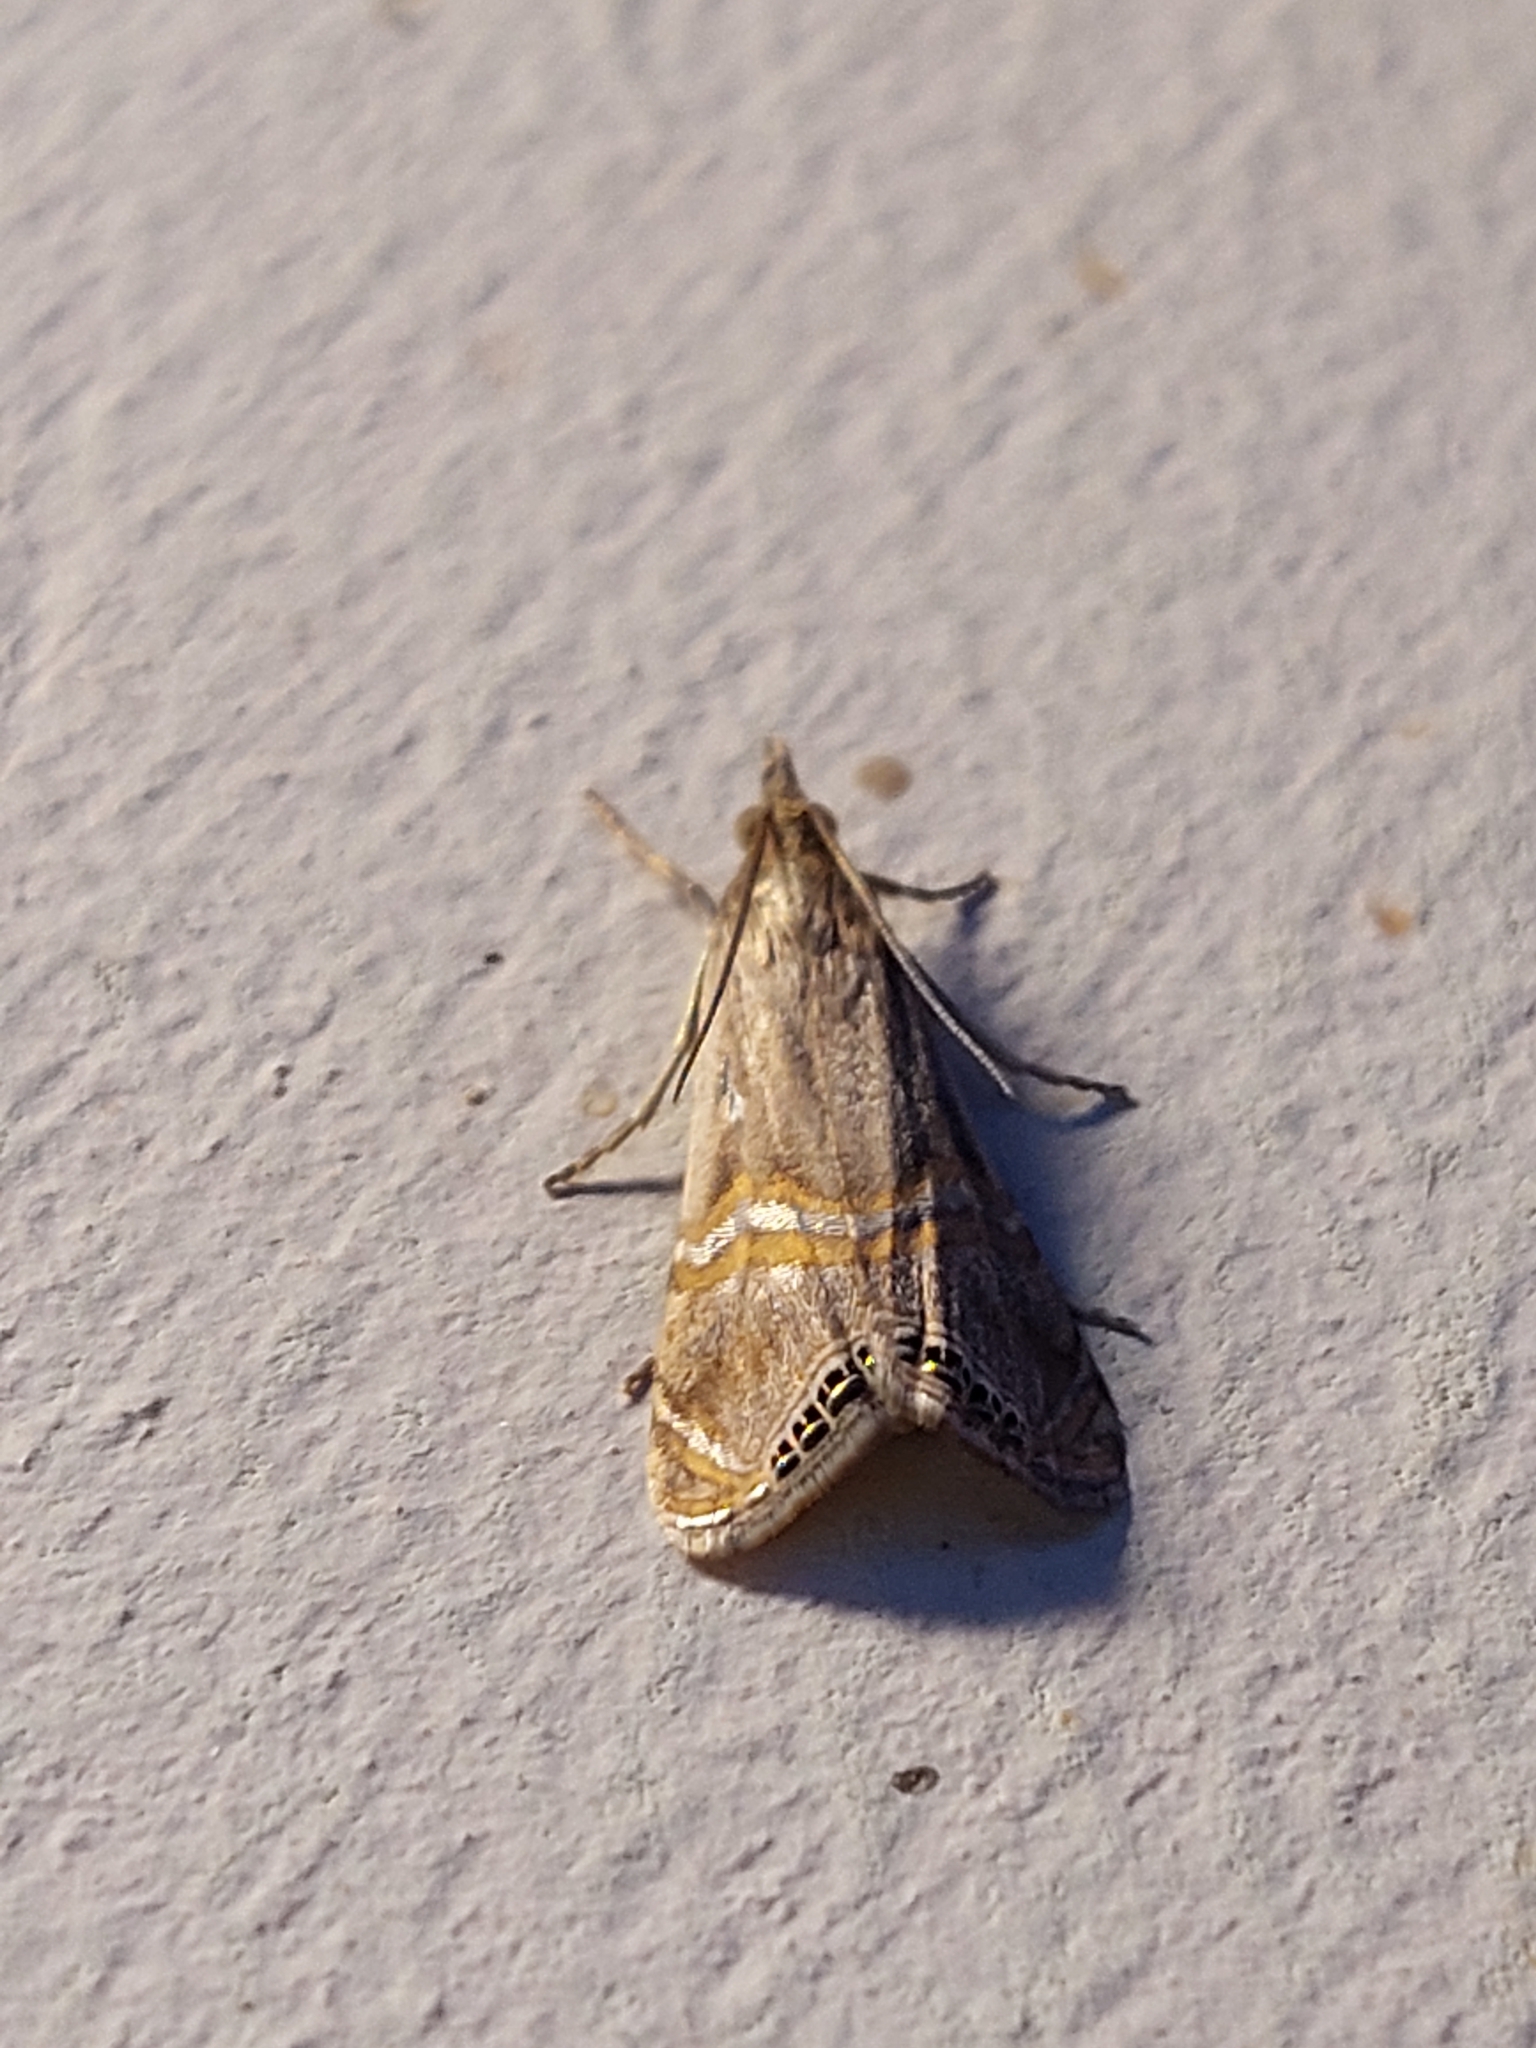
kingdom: Animalia
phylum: Arthropoda
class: Insecta
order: Lepidoptera
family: Crambidae
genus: Euchromius
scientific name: Euchromius ocellea
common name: Necklace veneer moth
